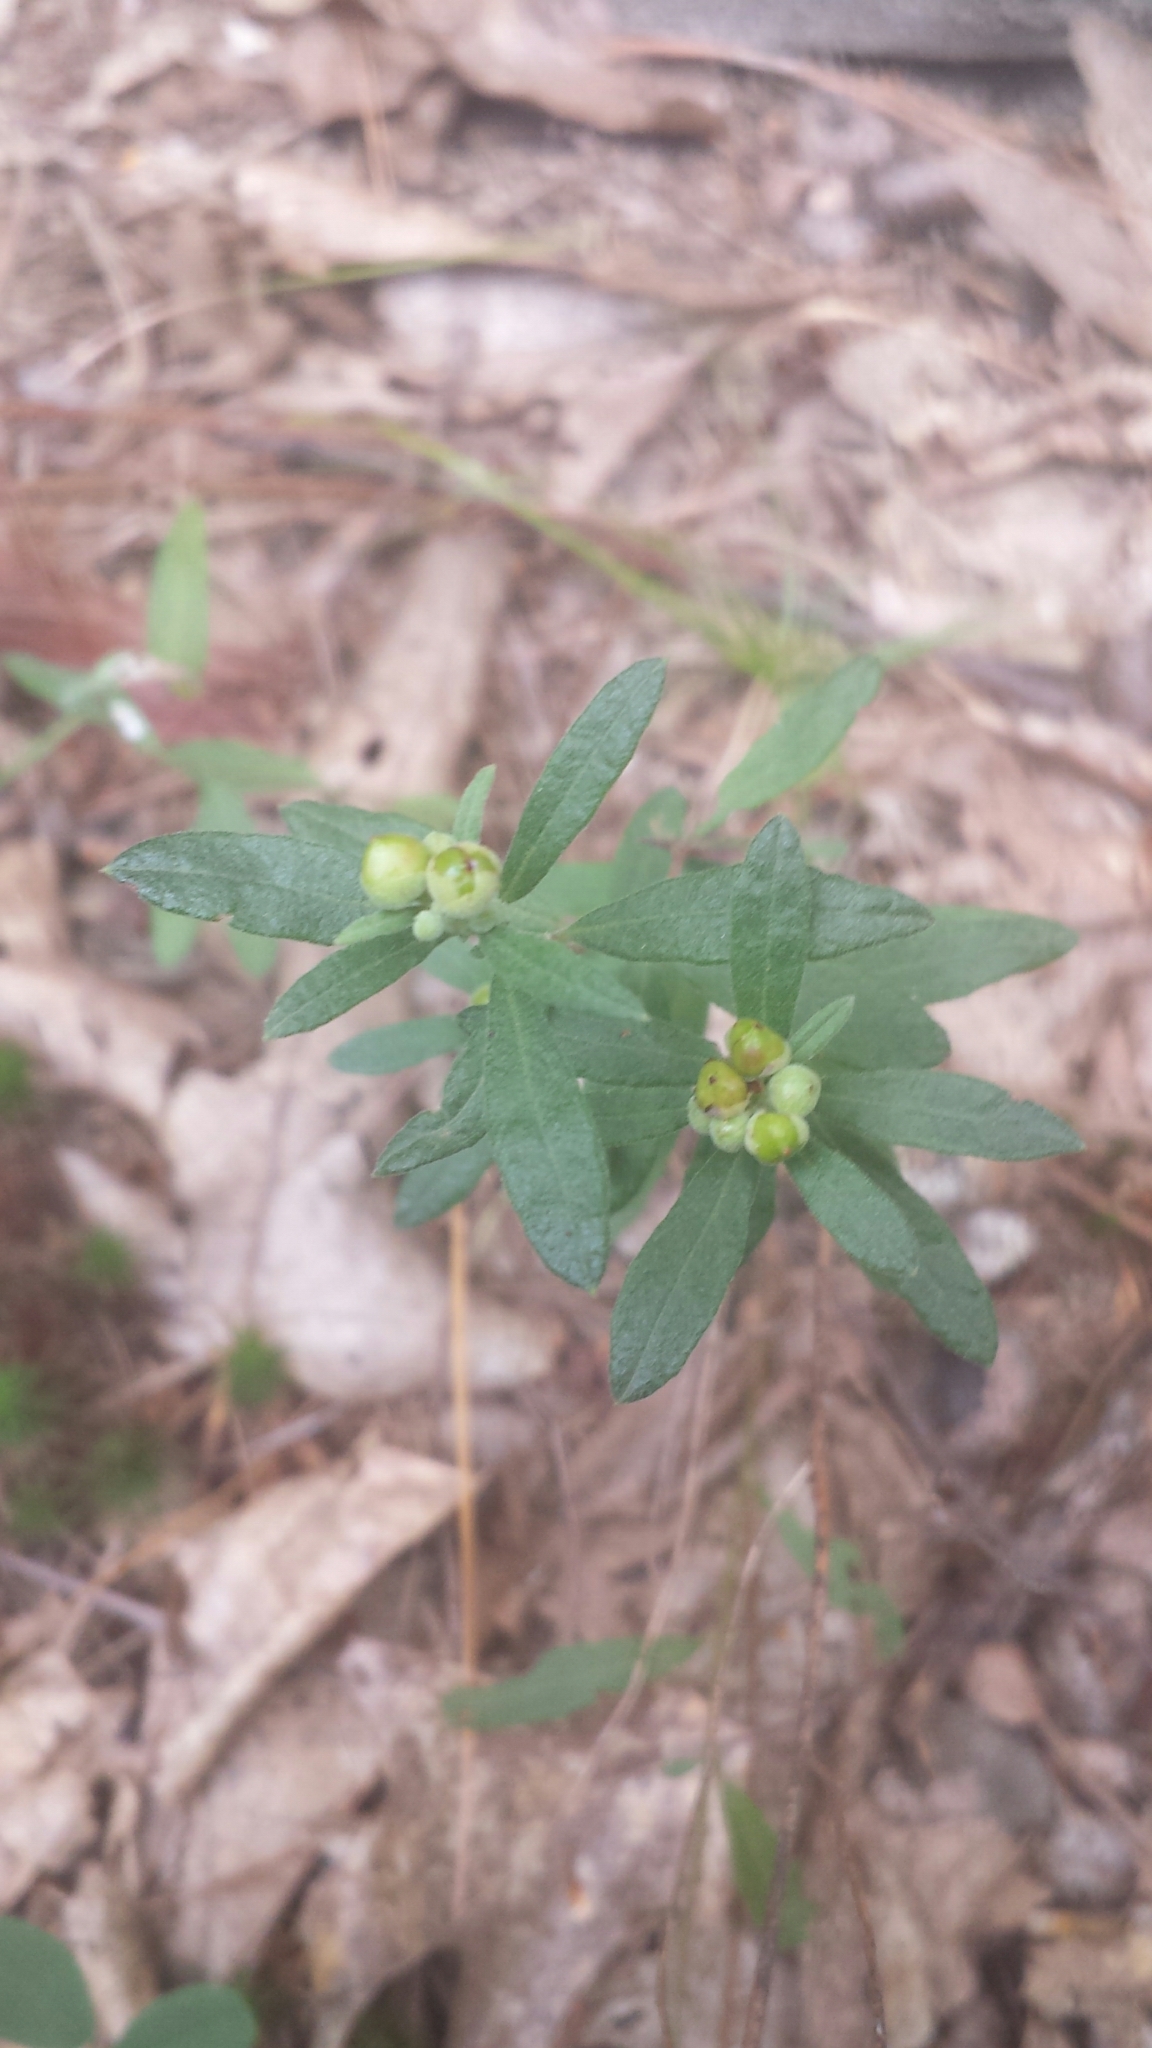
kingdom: Plantae
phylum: Tracheophyta
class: Magnoliopsida
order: Malvales
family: Cistaceae
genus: Crocanthemum
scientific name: Crocanthemum canadense
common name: Canada frostweed
